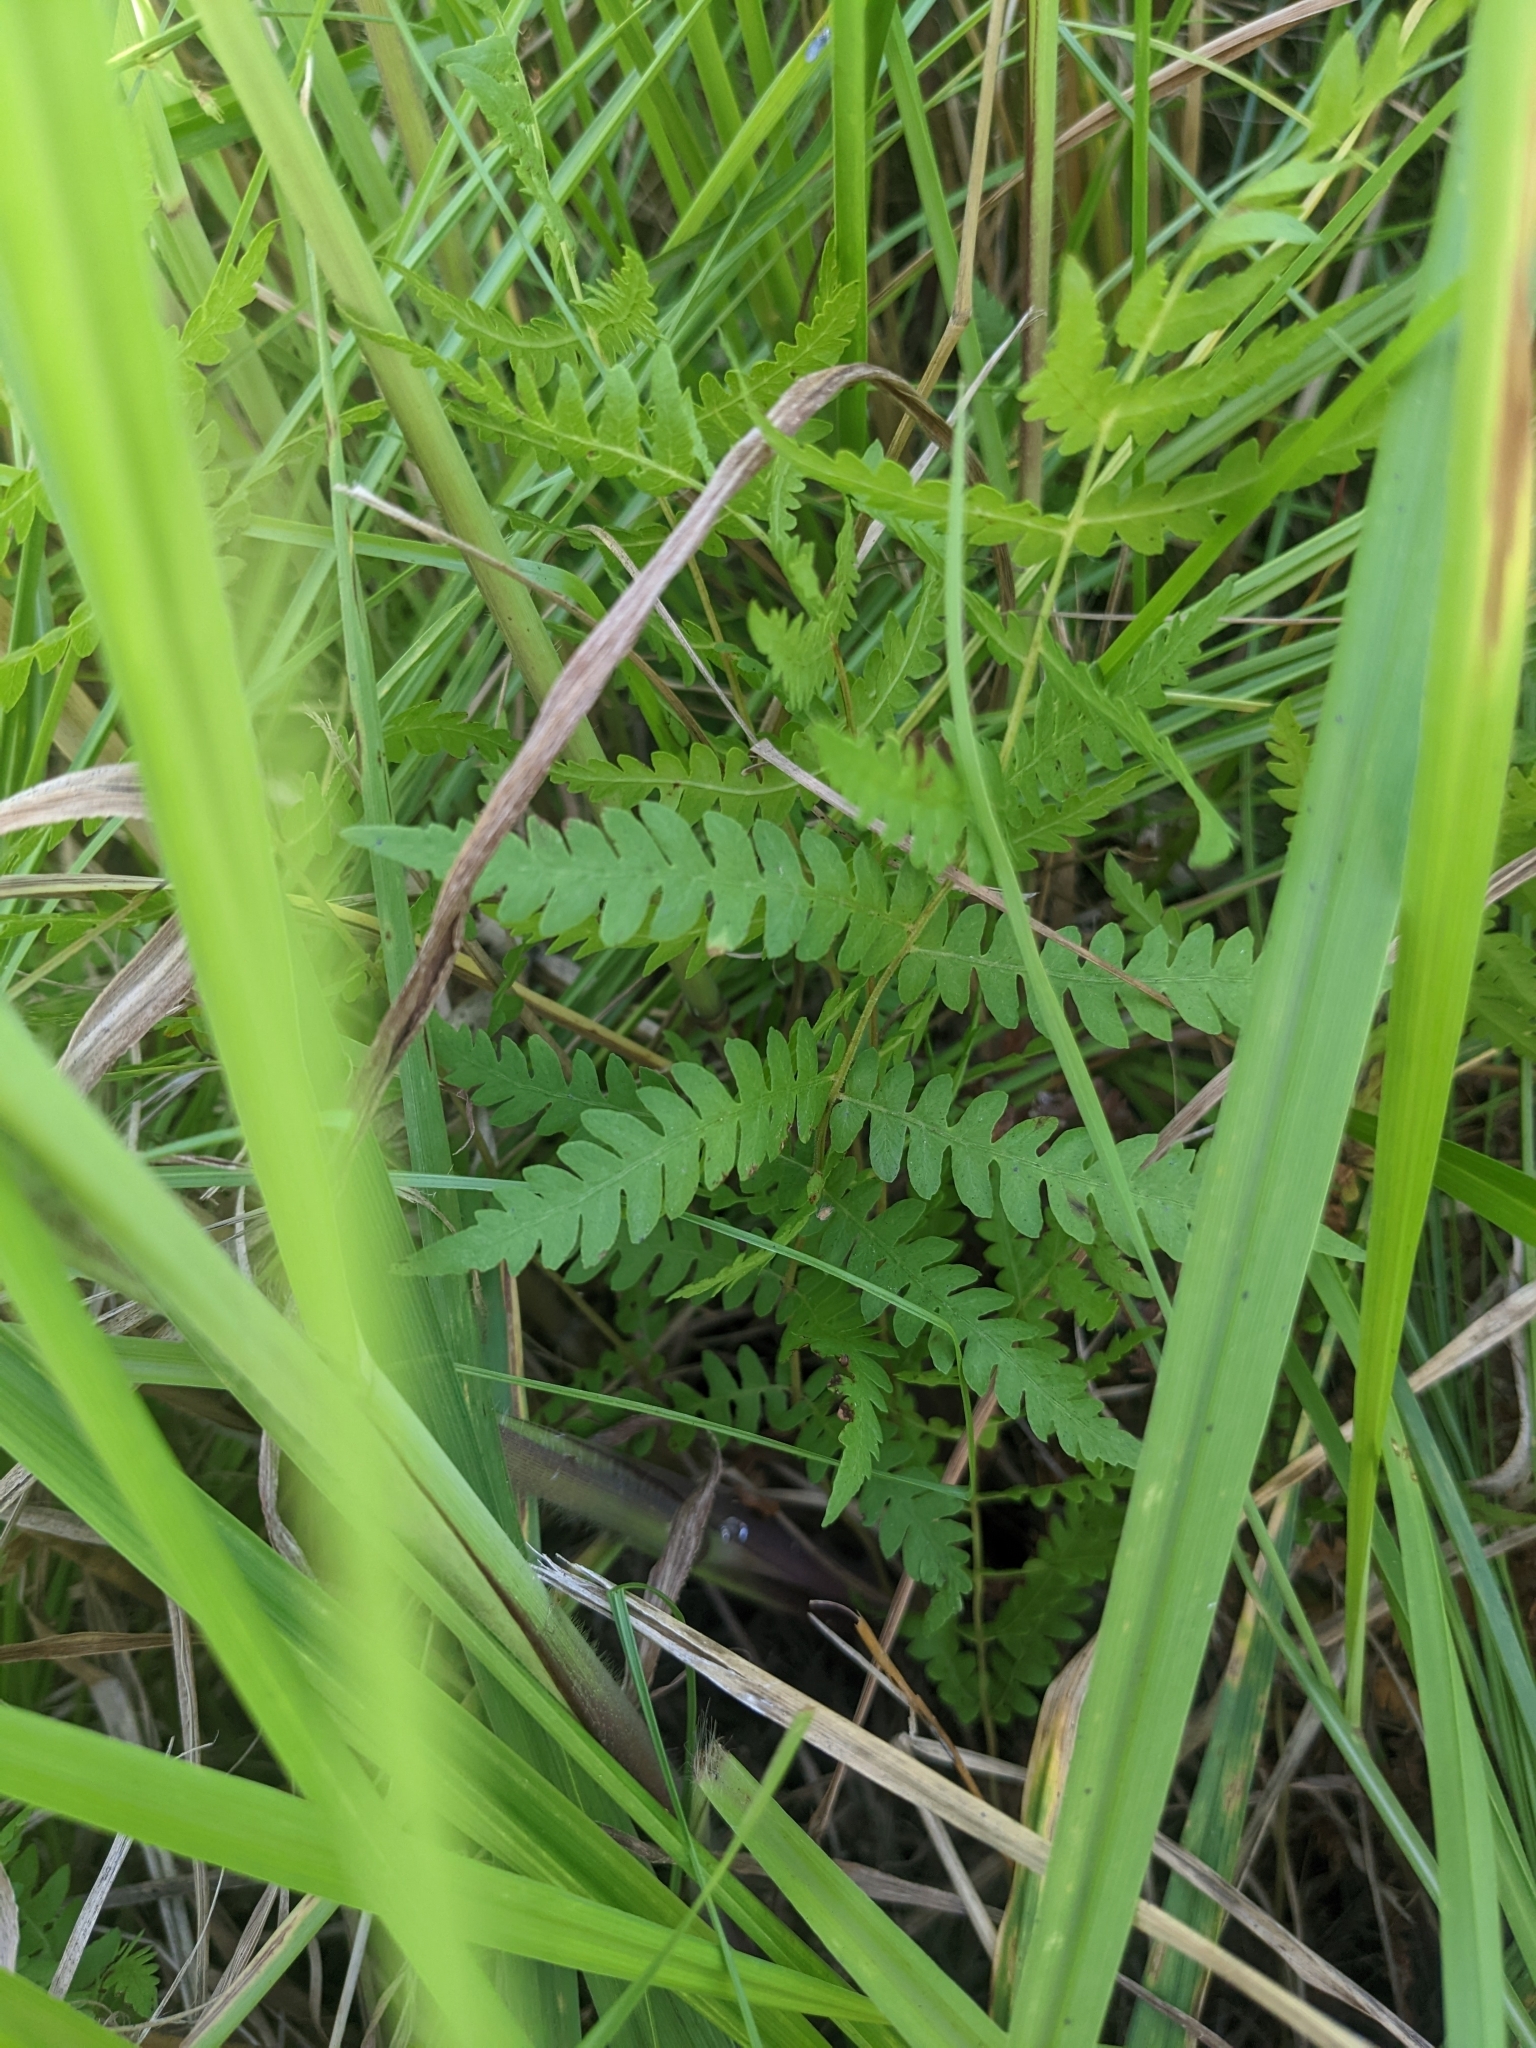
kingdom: Plantae
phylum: Tracheophyta
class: Polypodiopsida
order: Polypodiales
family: Thelypteridaceae
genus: Thelypteris
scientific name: Thelypteris palustris
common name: Marsh fern
